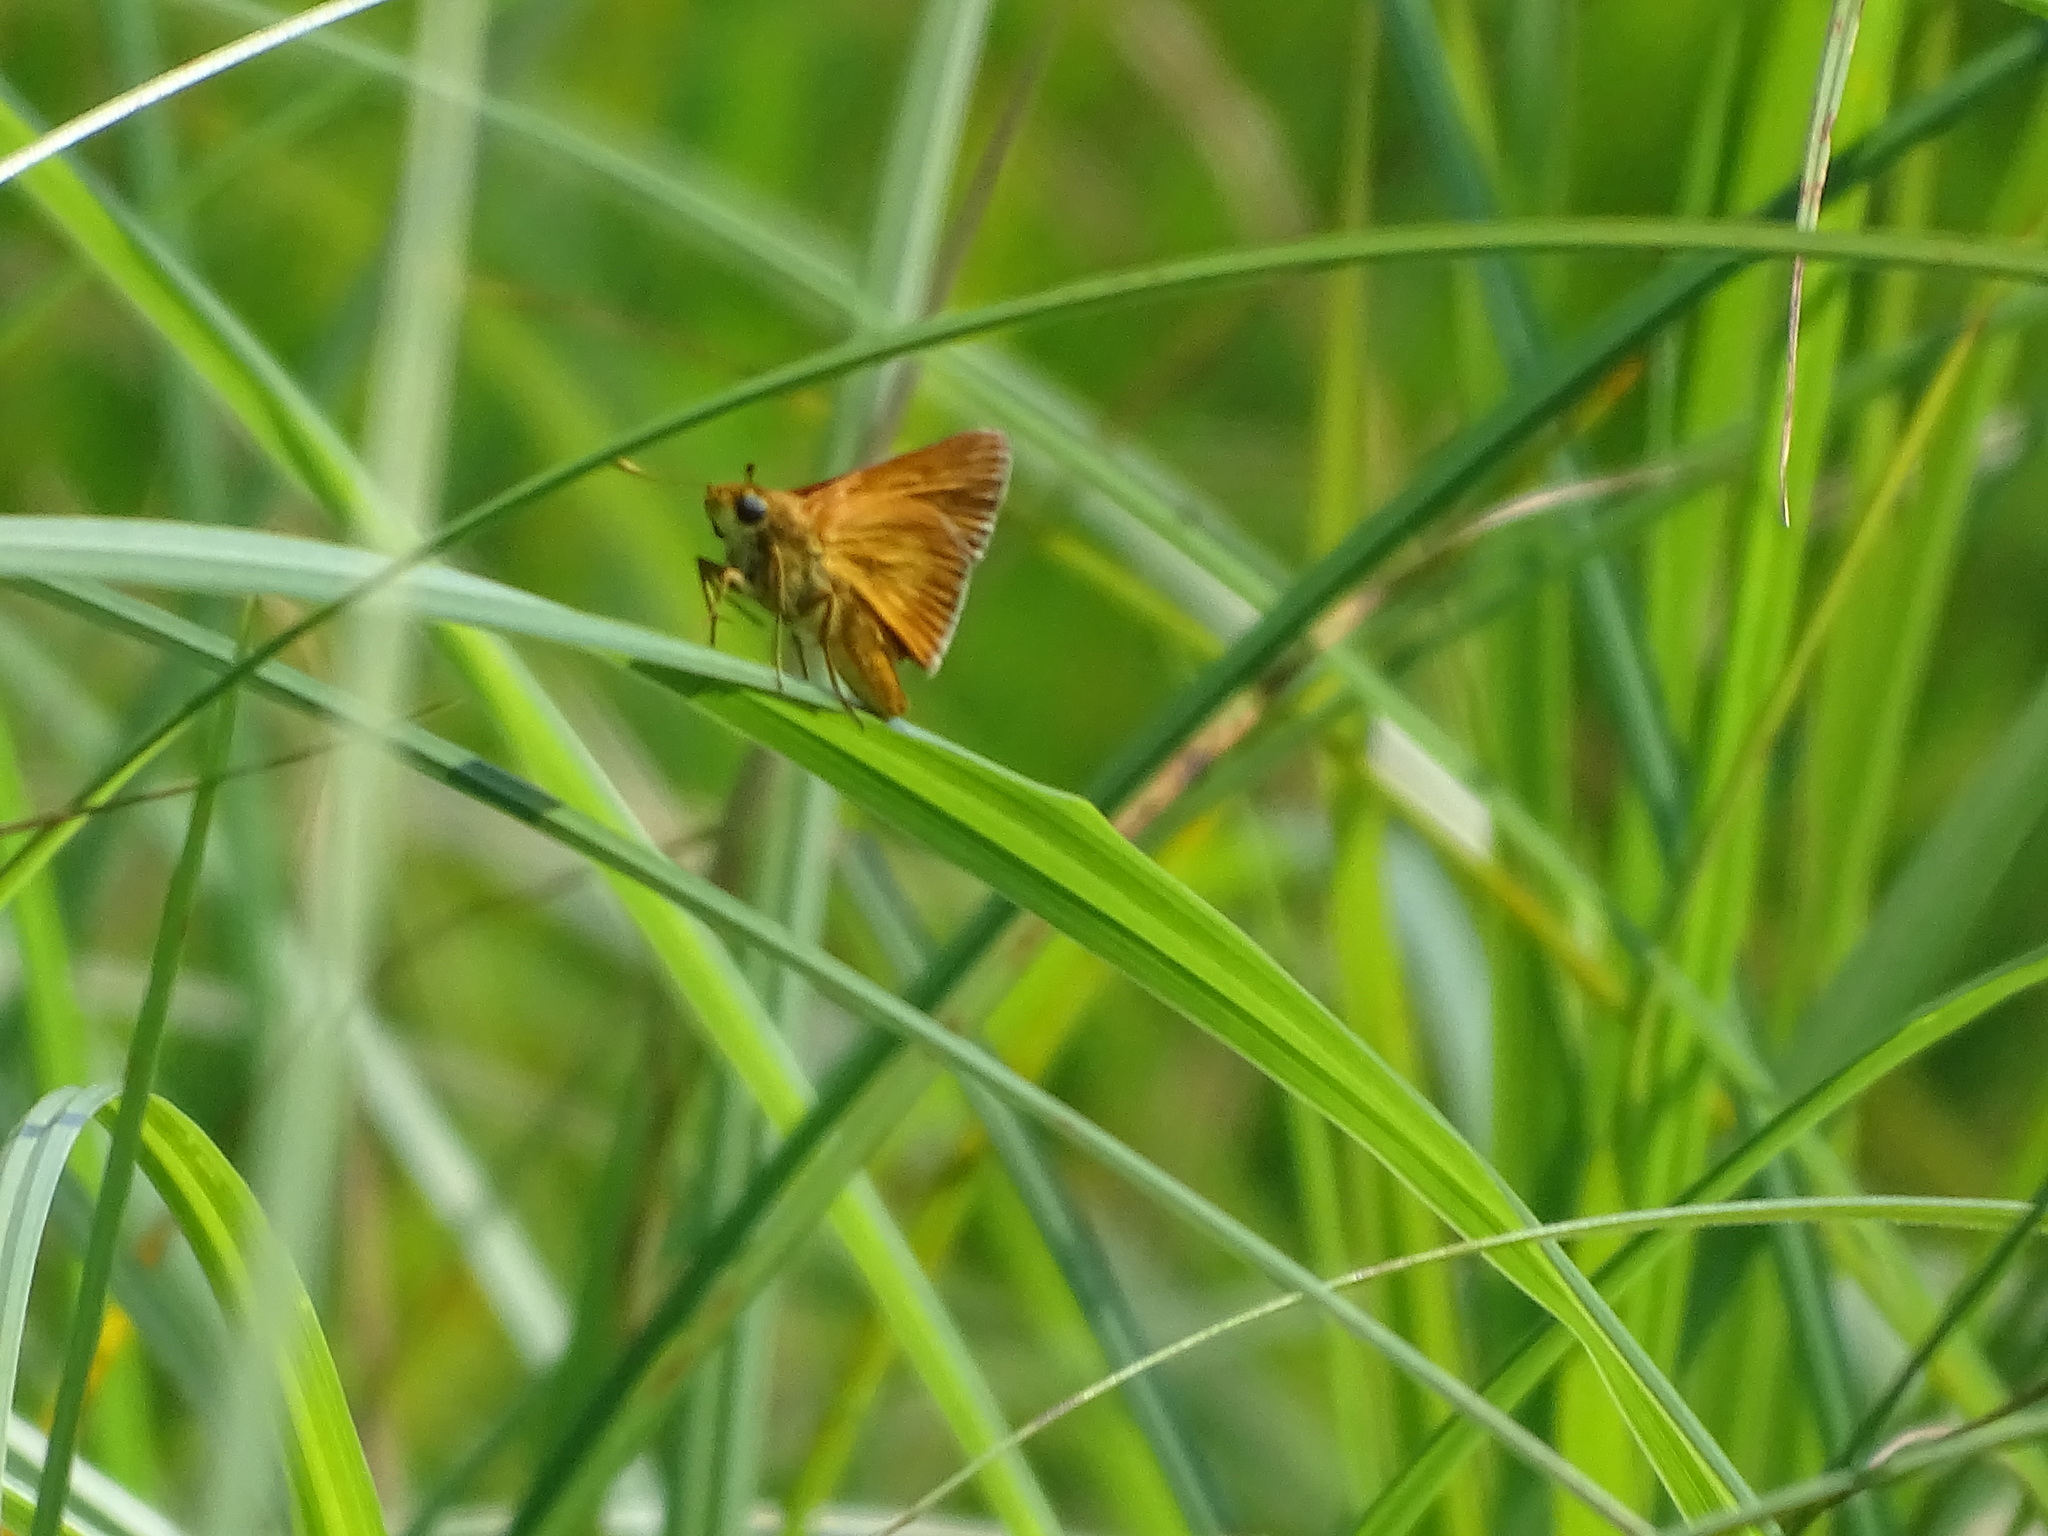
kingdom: Animalia
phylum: Arthropoda
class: Insecta
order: Lepidoptera
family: Hesperiidae
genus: Euphyes
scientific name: Euphyes conspicua
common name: Black dash
